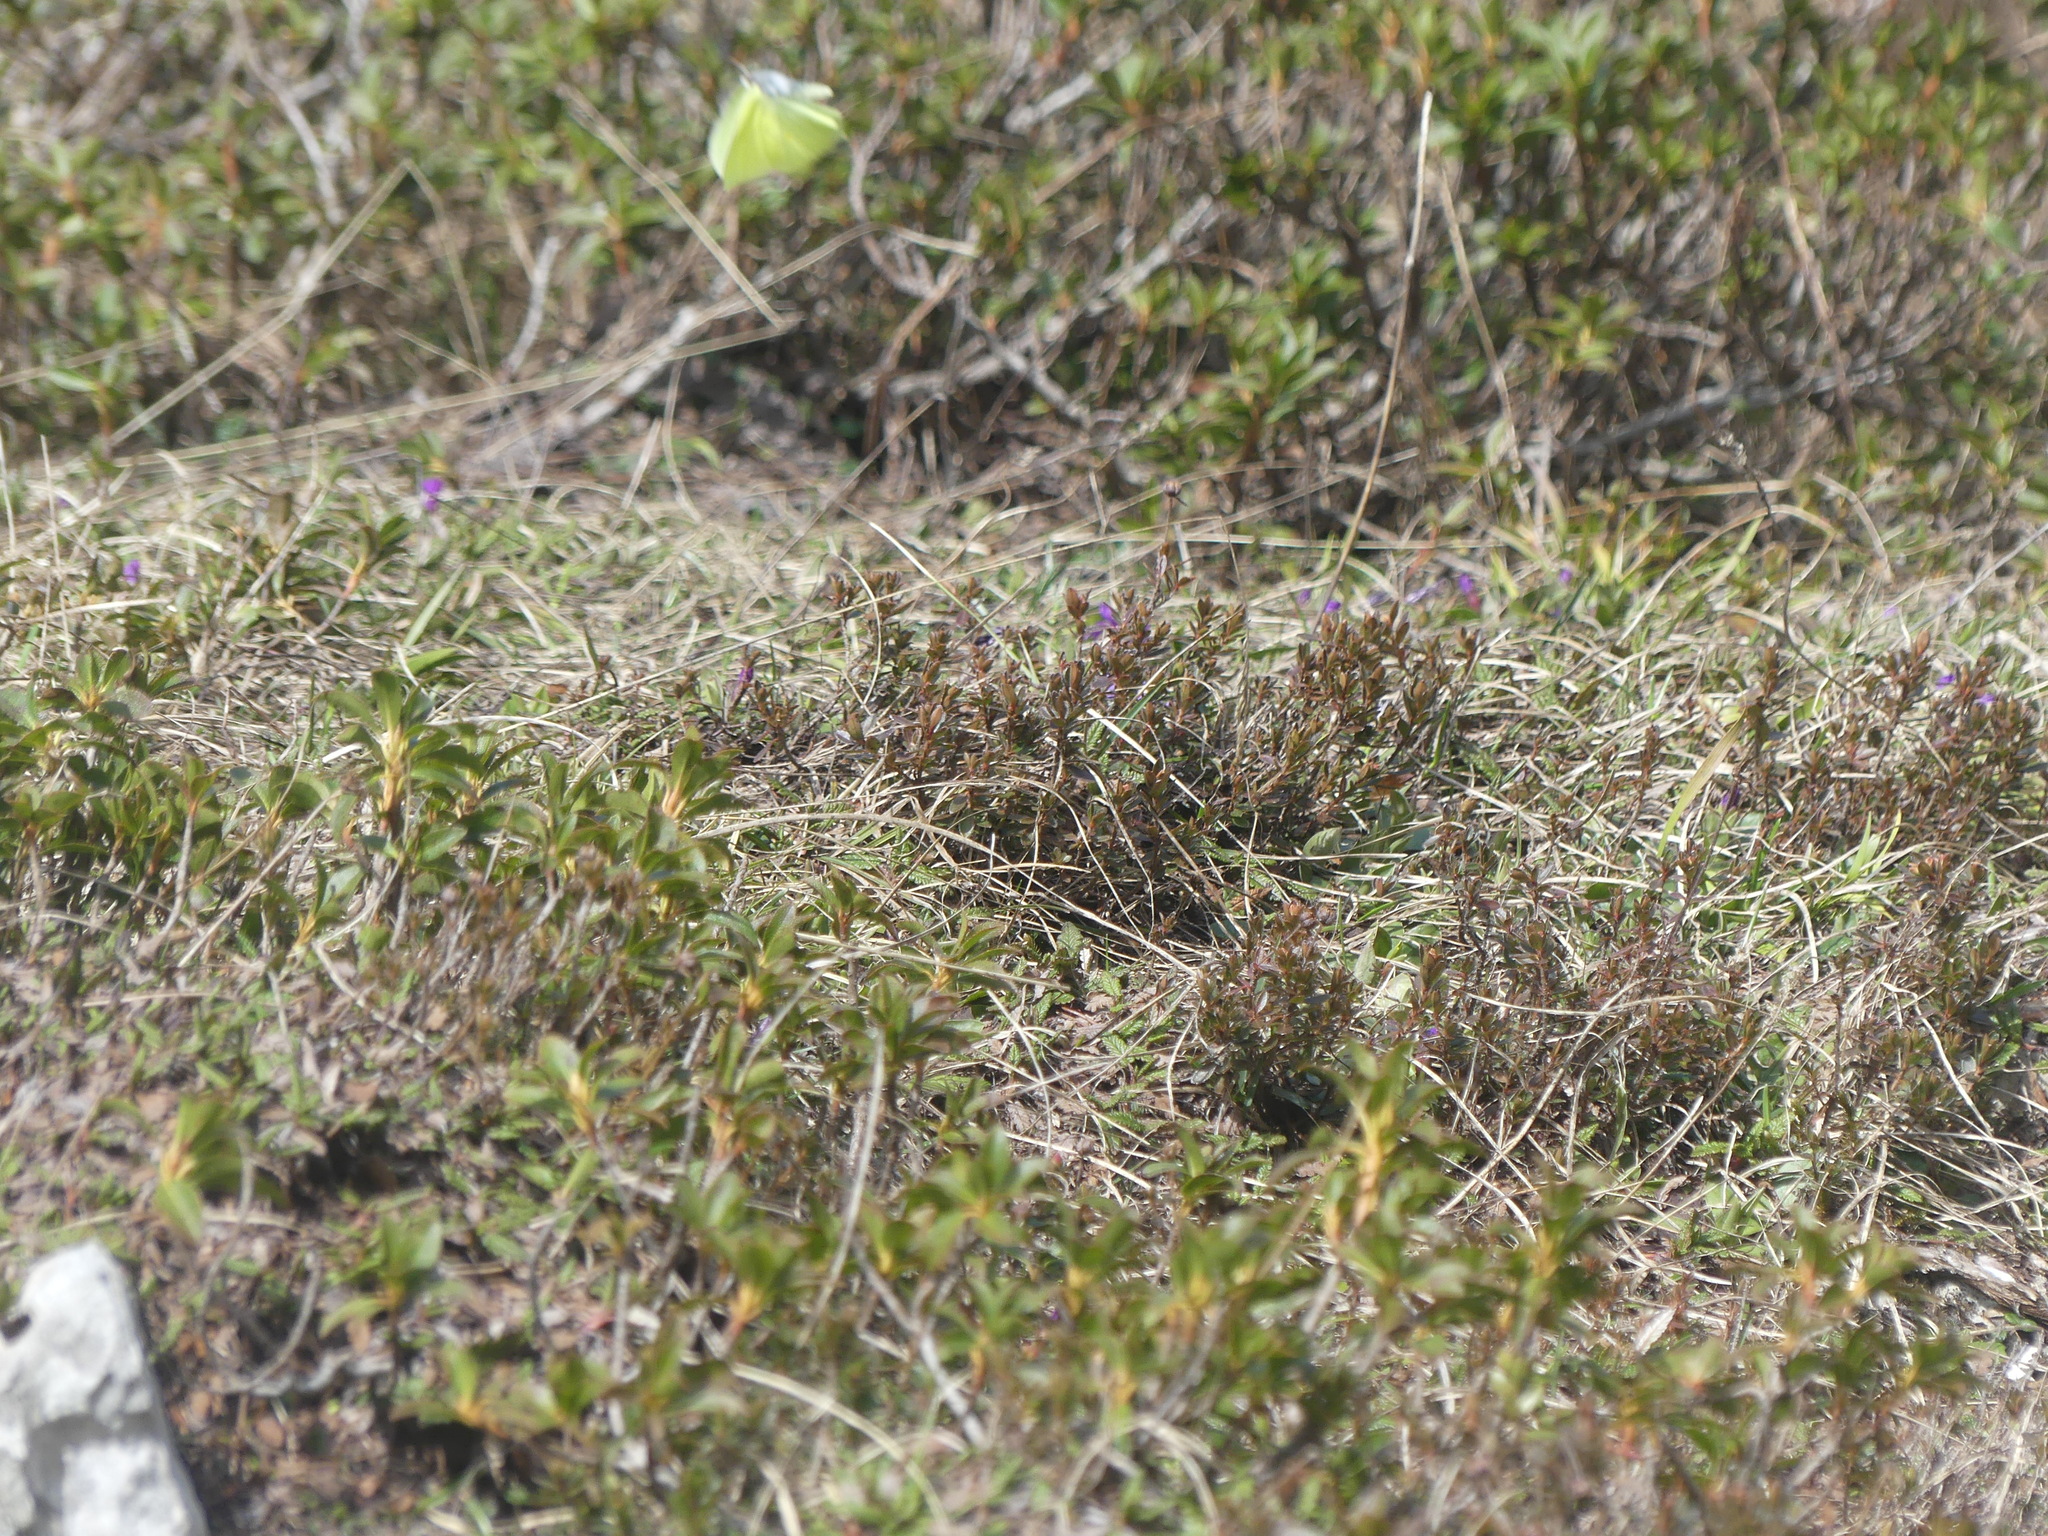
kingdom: Animalia
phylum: Arthropoda
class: Insecta
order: Lepidoptera
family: Pieridae
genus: Gonepteryx
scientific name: Gonepteryx rhamni
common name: Brimstone
